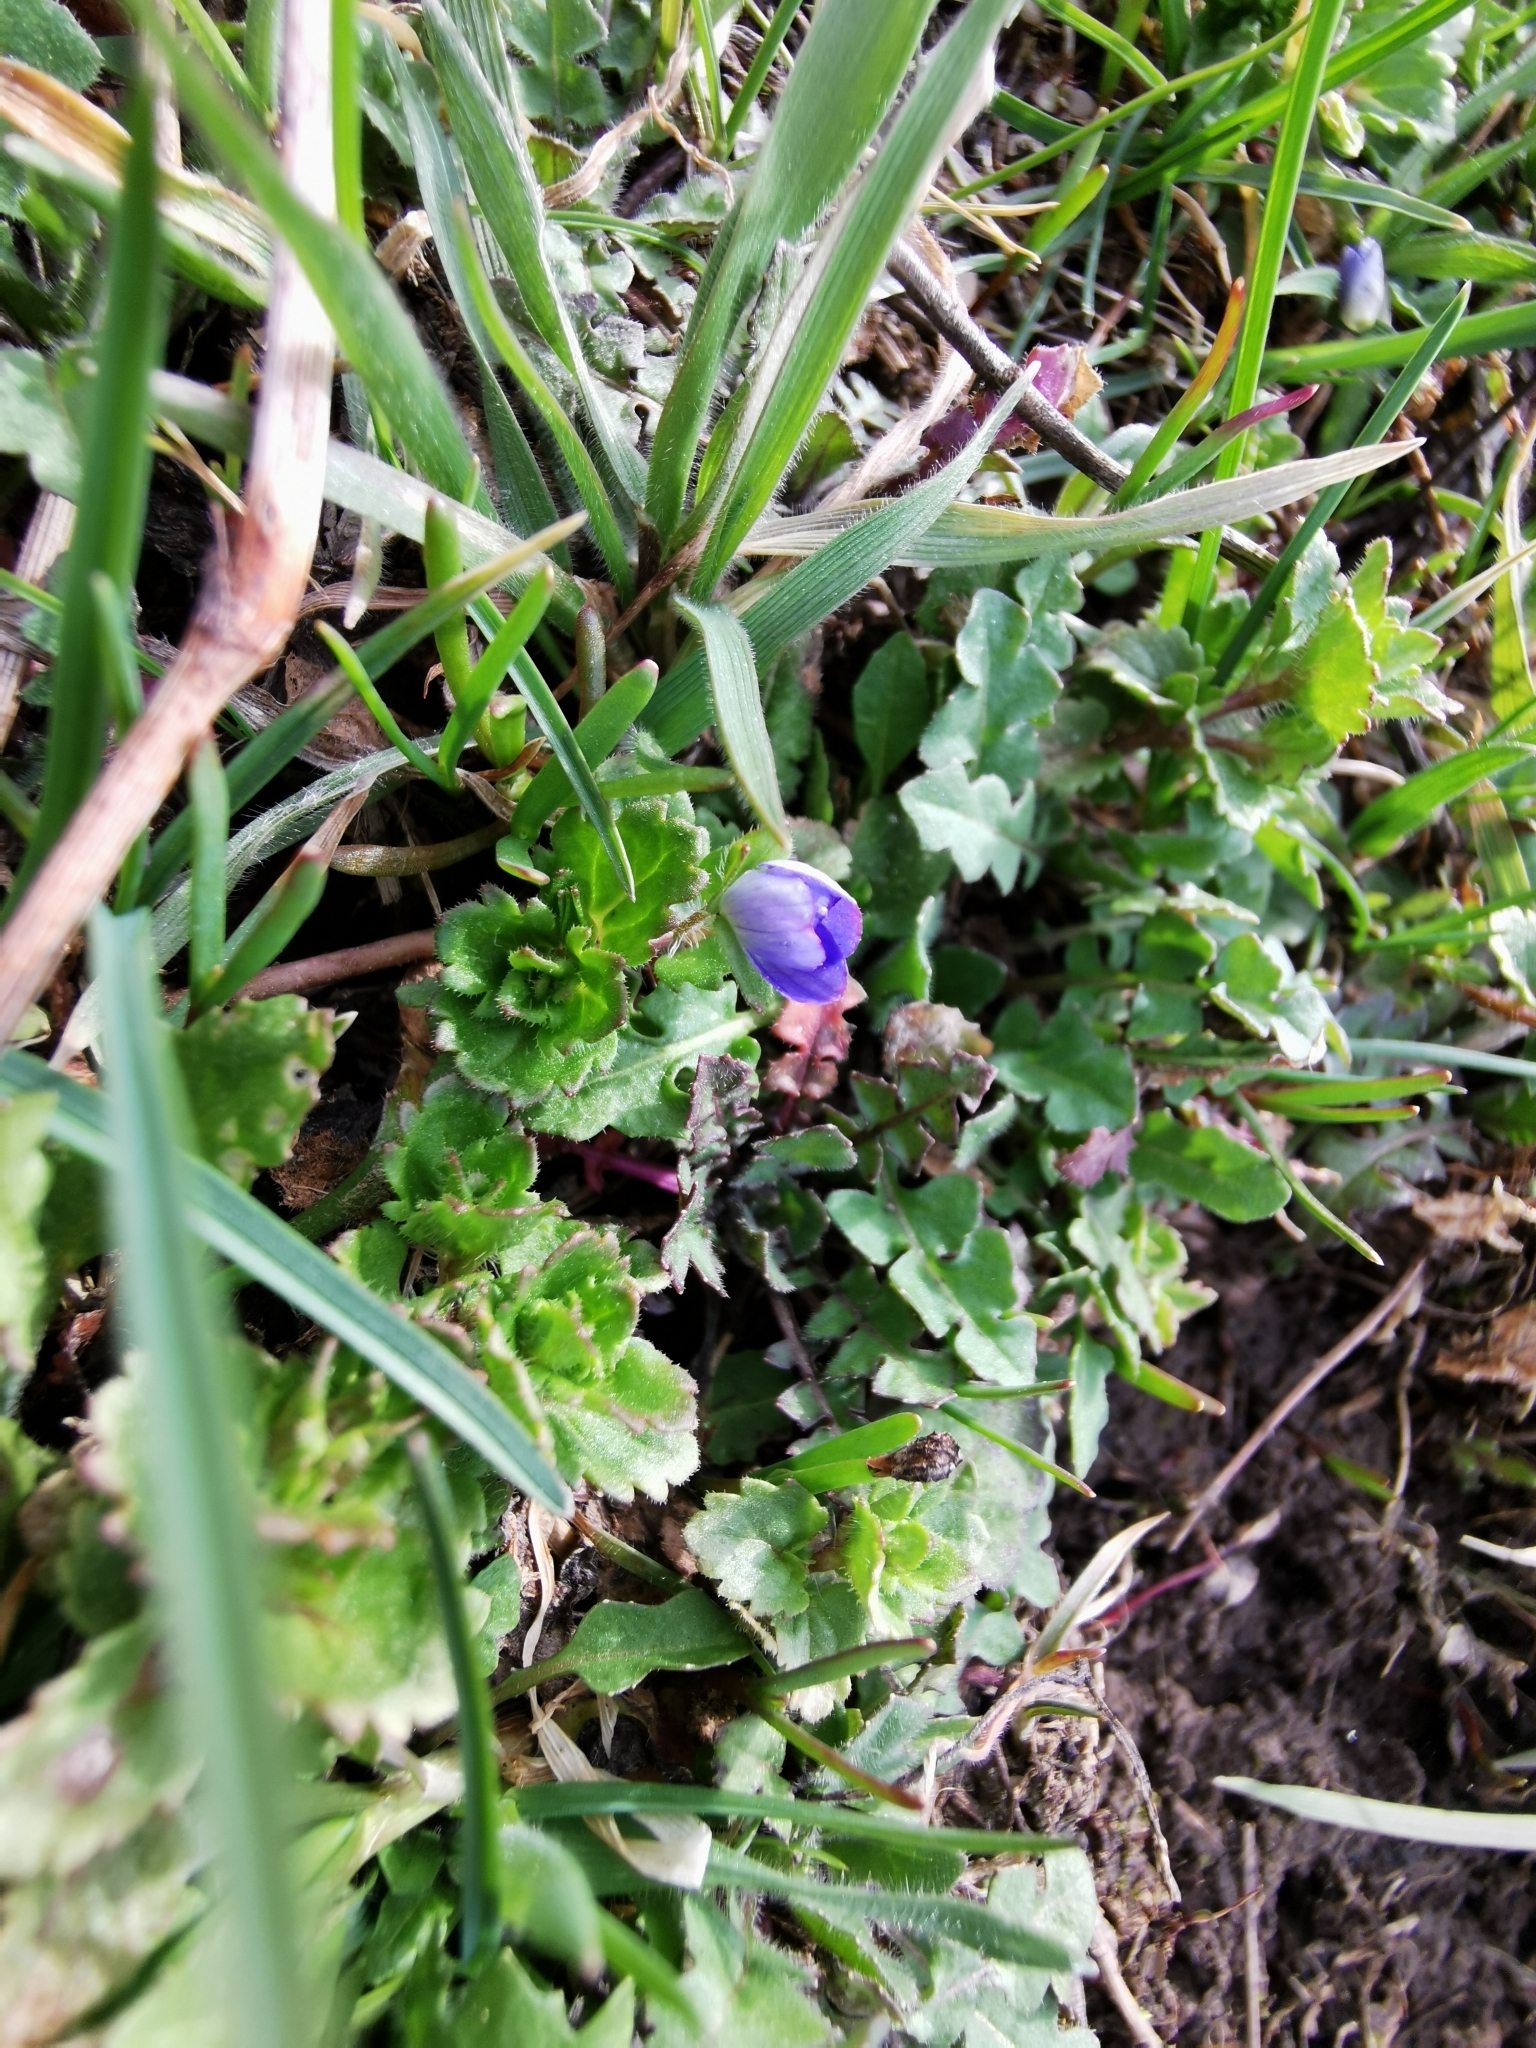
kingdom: Plantae
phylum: Tracheophyta
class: Magnoliopsida
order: Lamiales
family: Plantaginaceae
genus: Veronica
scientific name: Veronica persica
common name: Common field-speedwell
